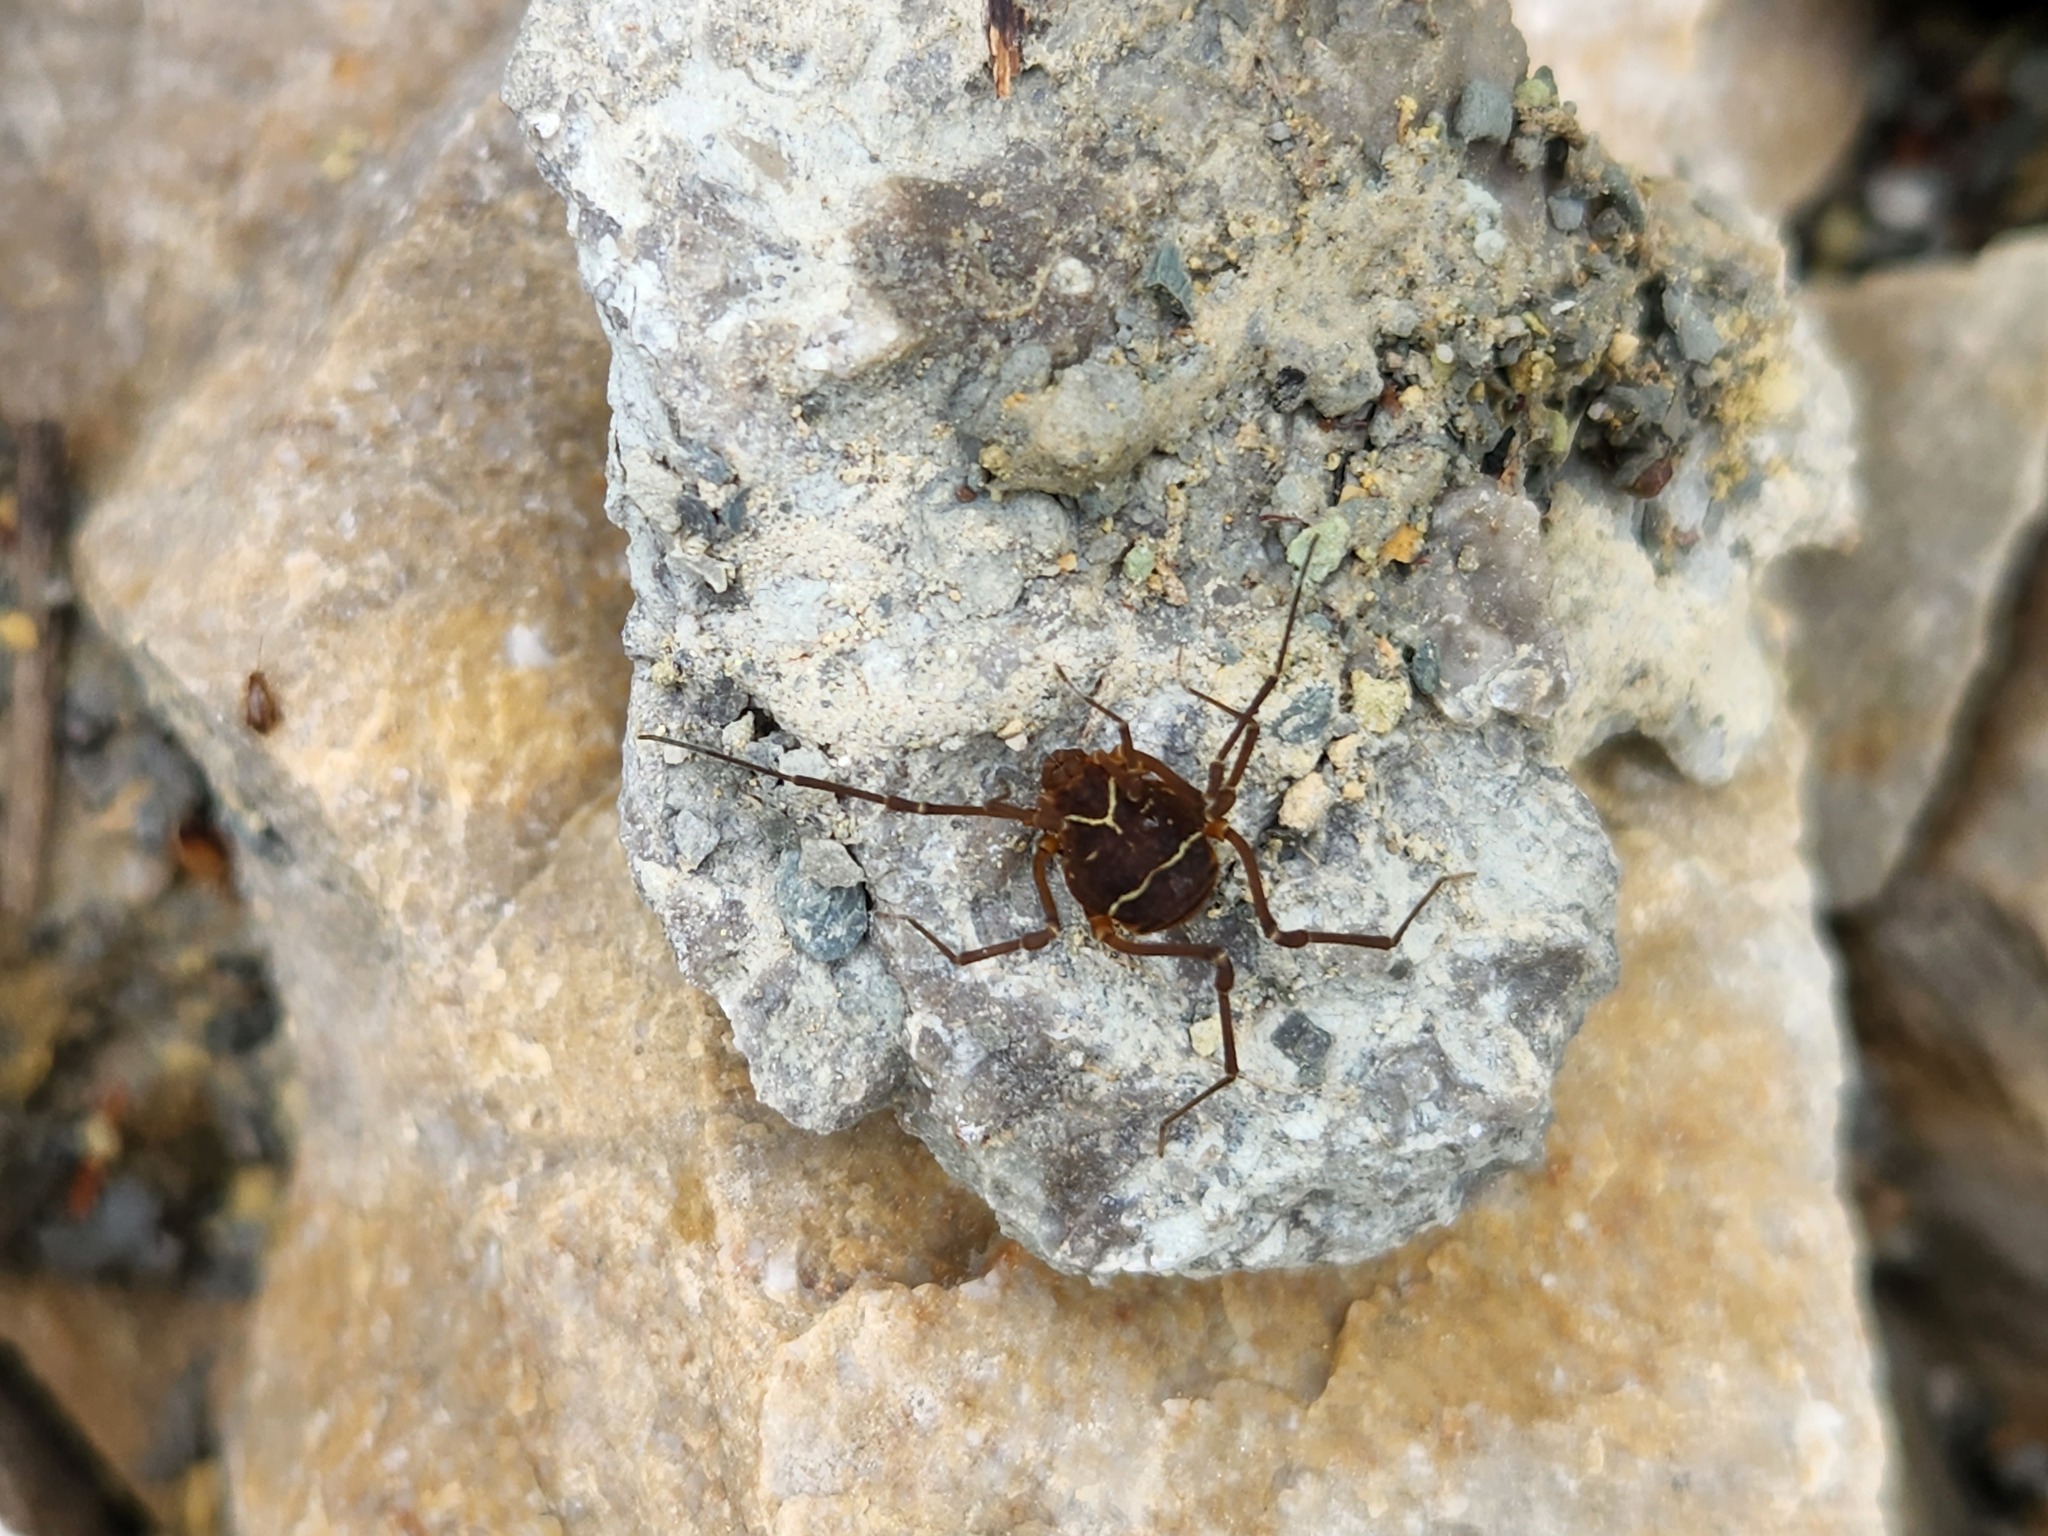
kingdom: Animalia
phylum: Arthropoda
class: Arachnida
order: Opiliones
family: Cosmetidae
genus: Libitioides
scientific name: Libitioides sayi
